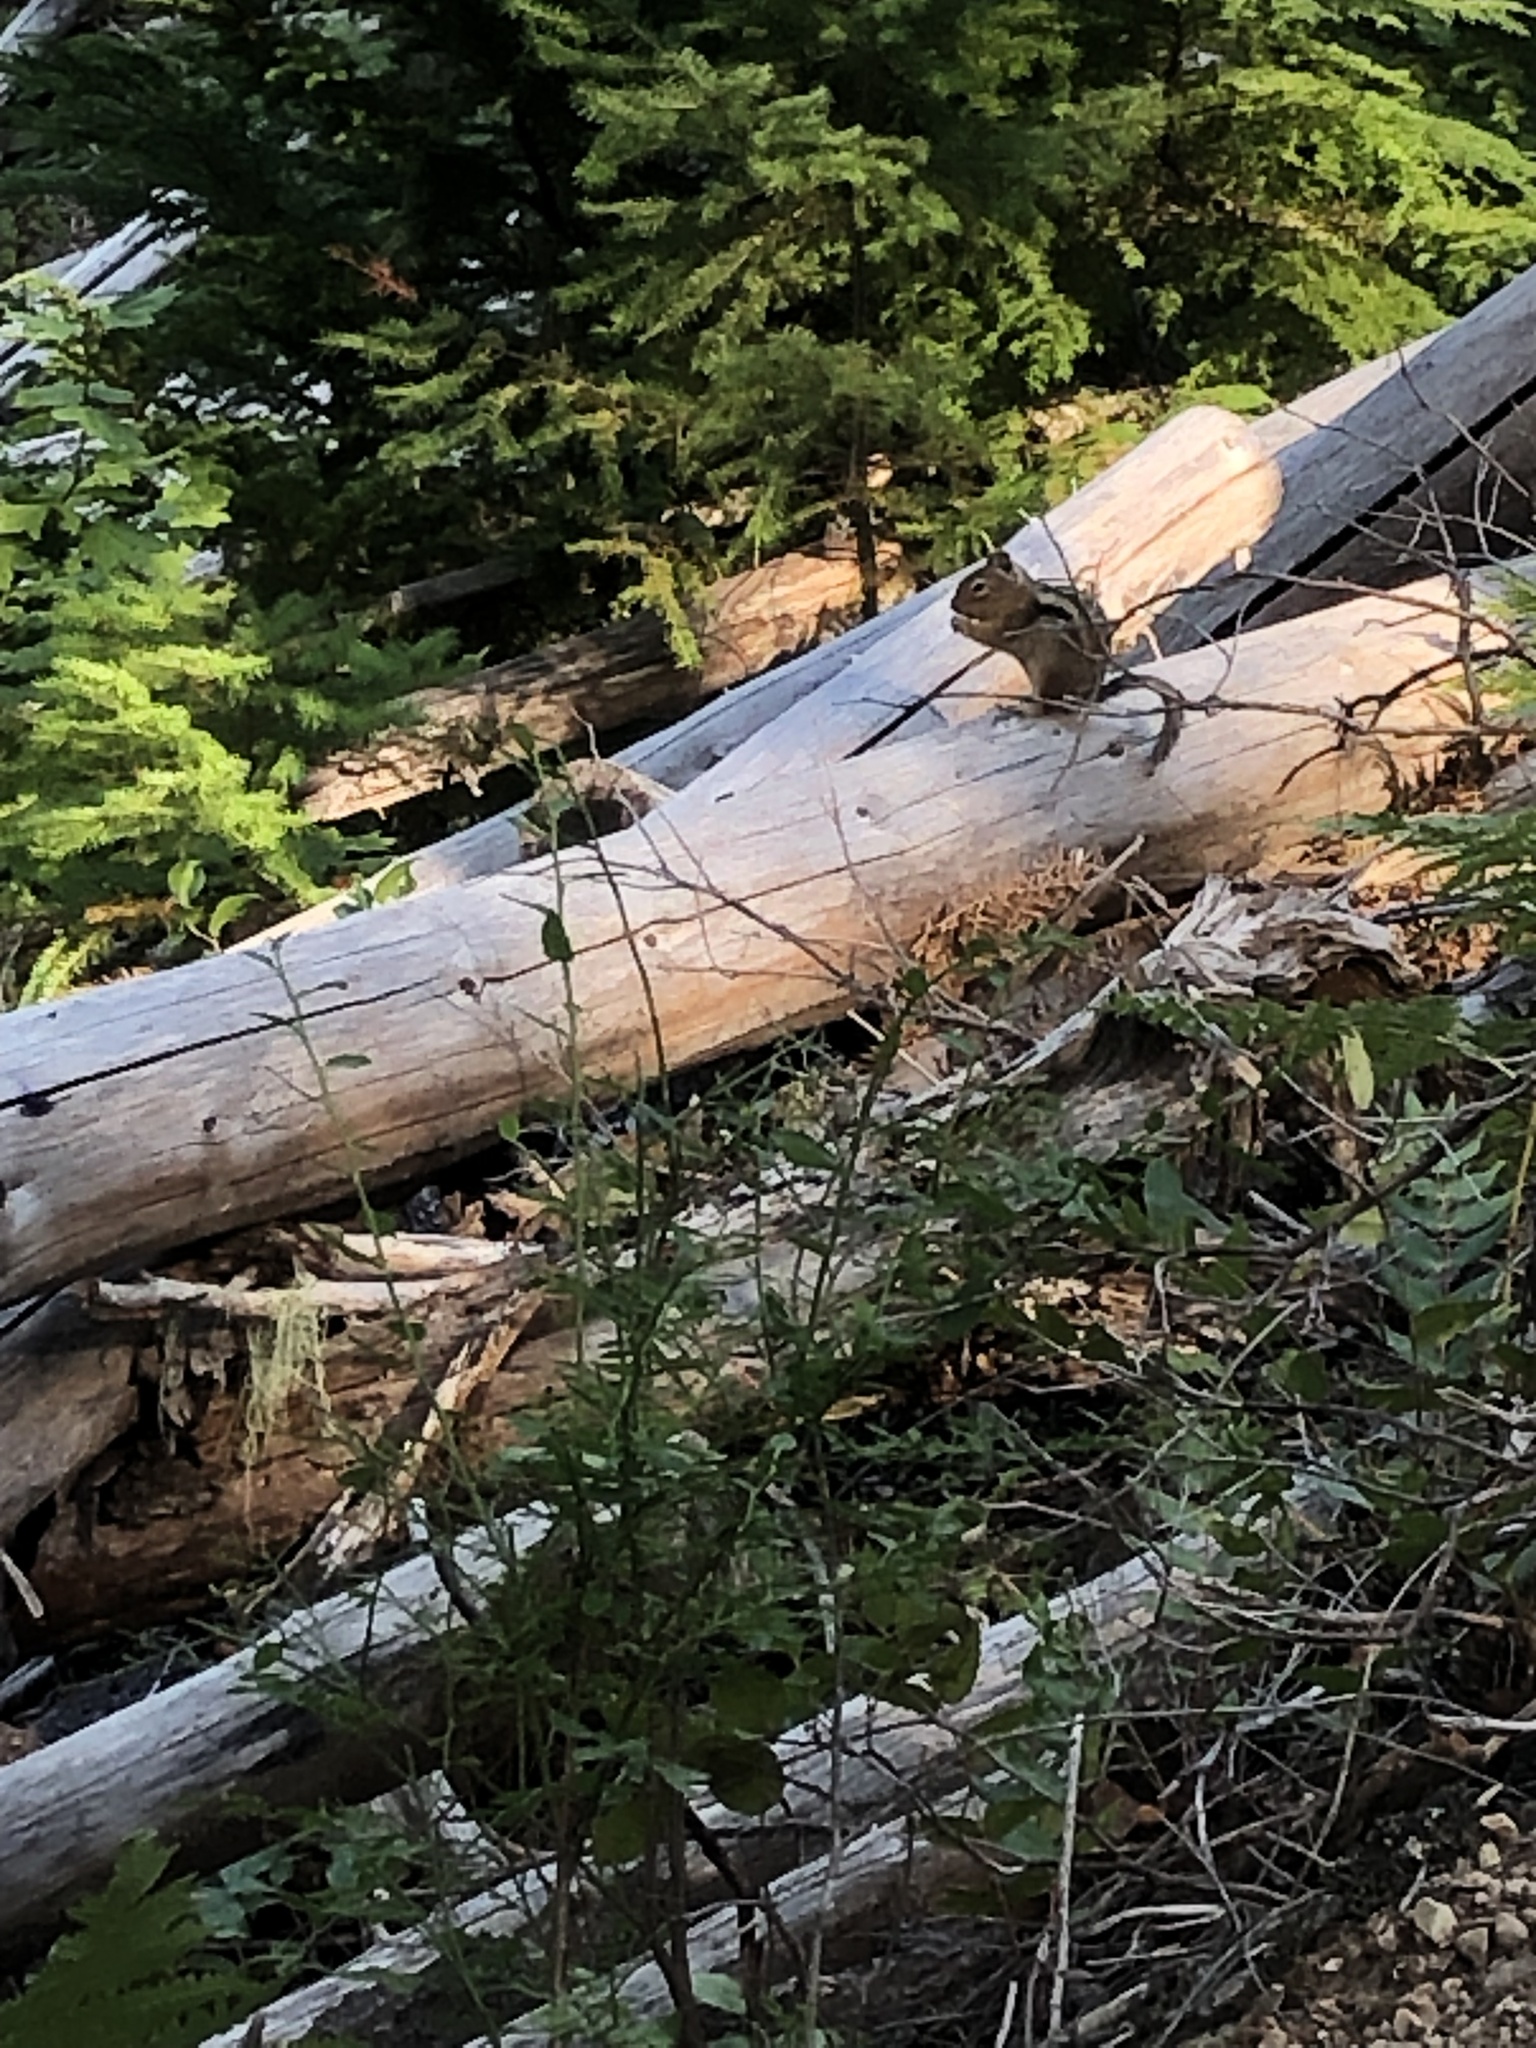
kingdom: Animalia
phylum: Chordata
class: Mammalia
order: Rodentia
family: Sciuridae
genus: Callospermophilus
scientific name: Callospermophilus saturatus
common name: Cascade golden-mantled ground squirrel
